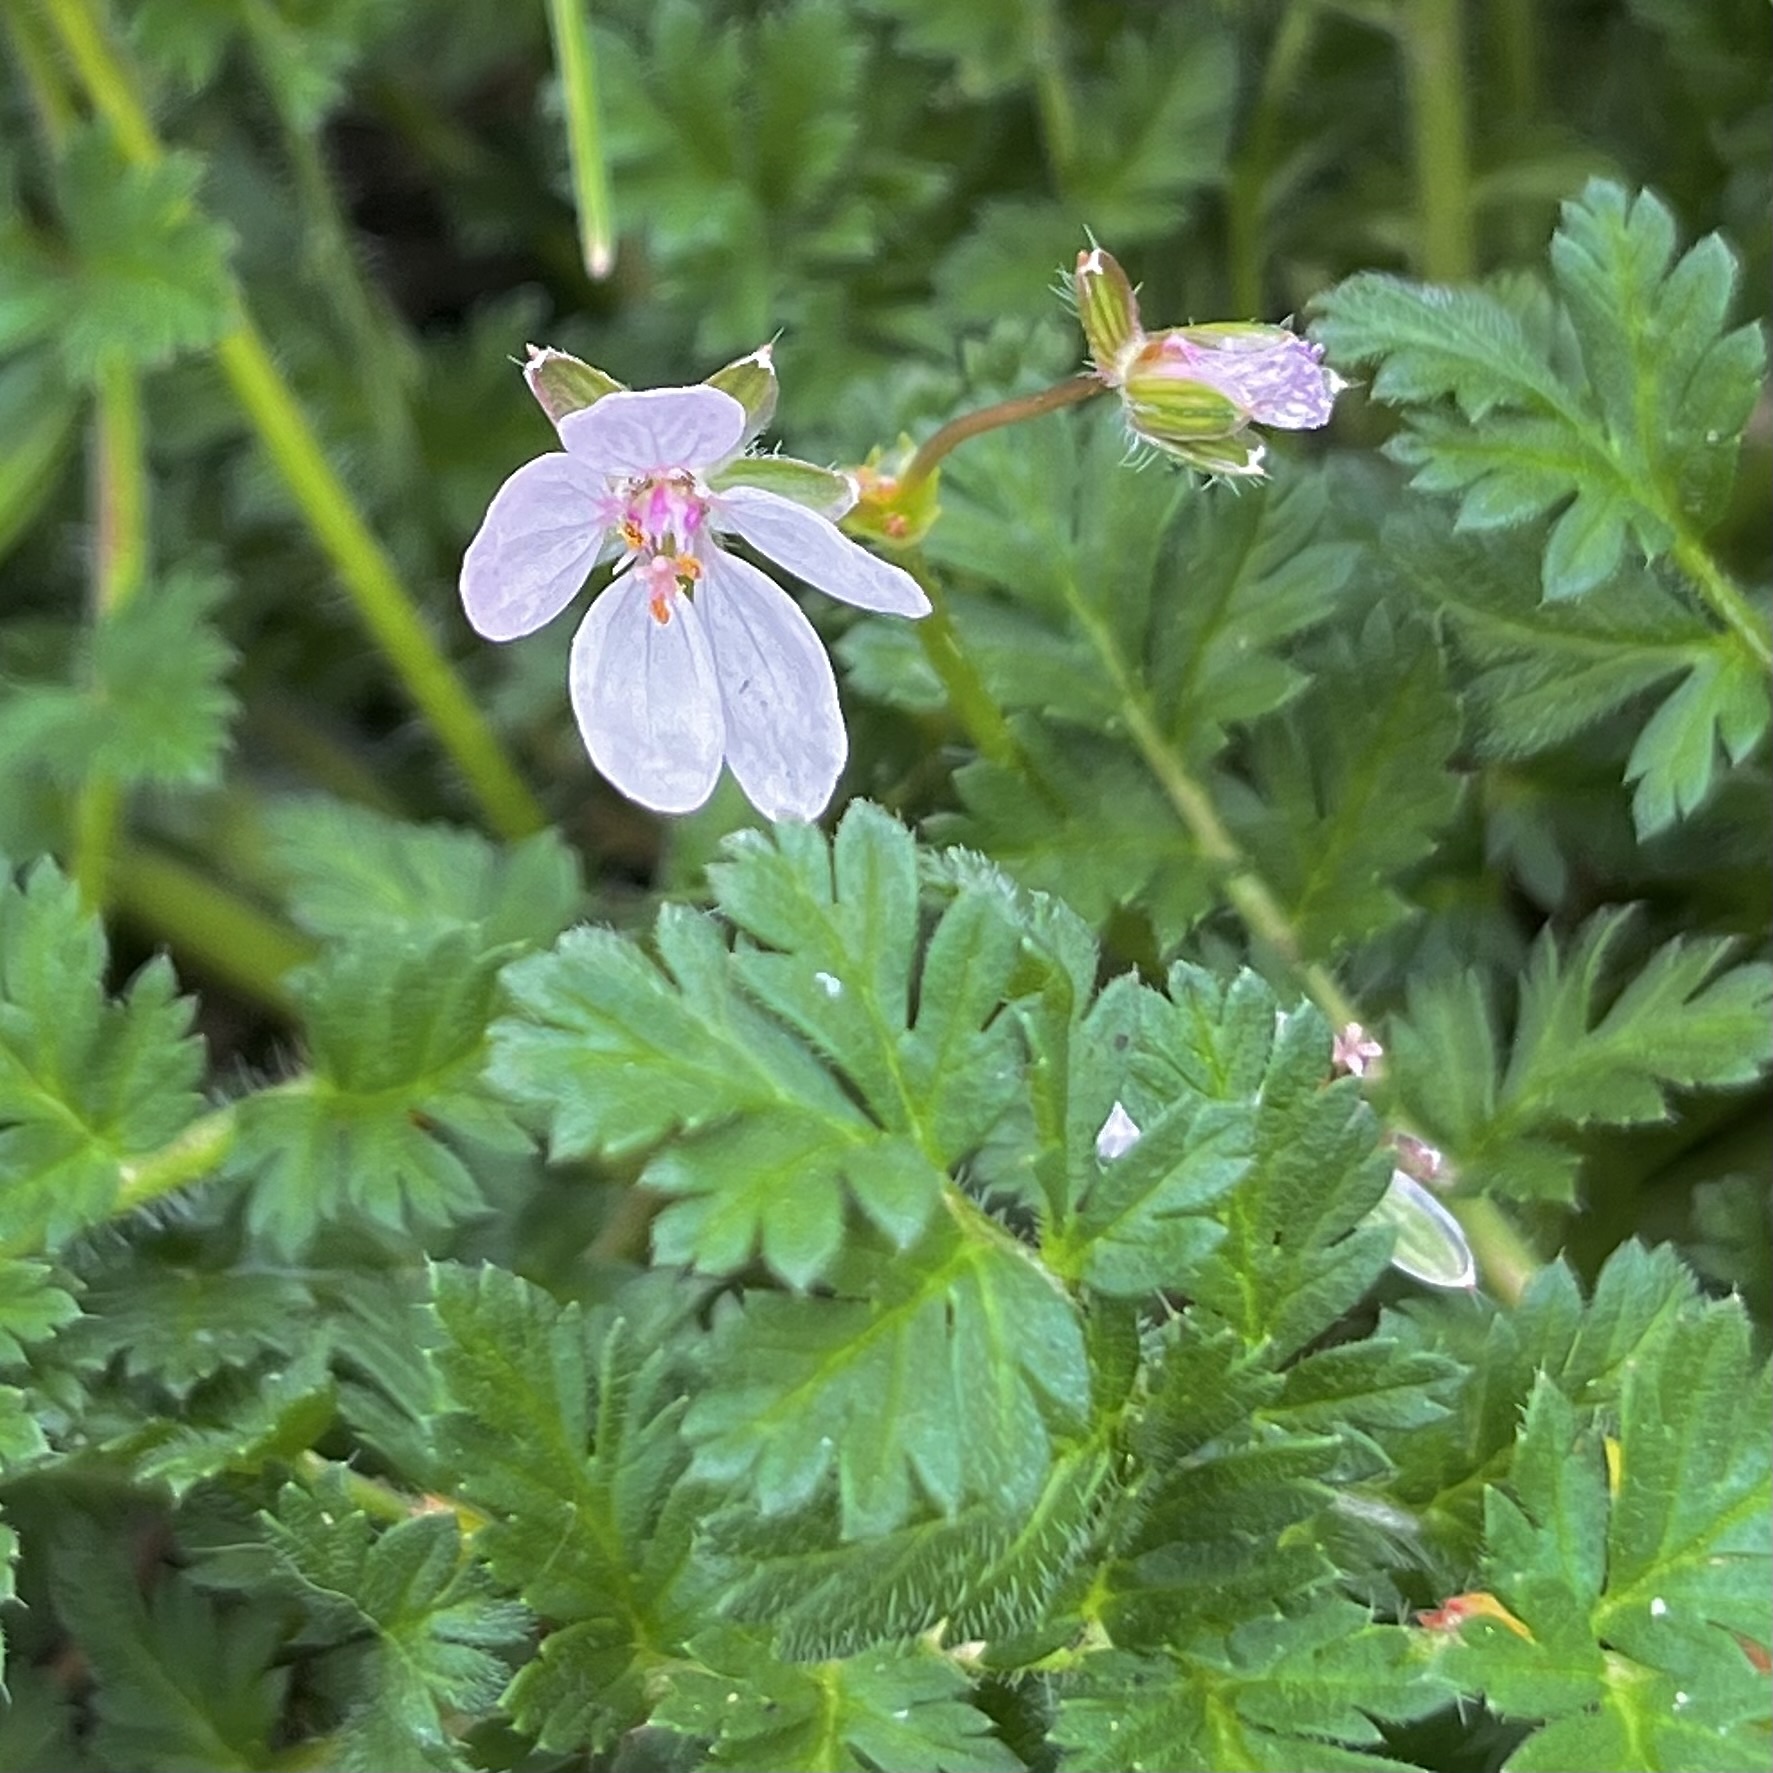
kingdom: Plantae
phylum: Tracheophyta
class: Magnoliopsida
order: Geraniales
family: Geraniaceae
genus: Erodium
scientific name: Erodium cicutarium
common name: Common stork's-bill
